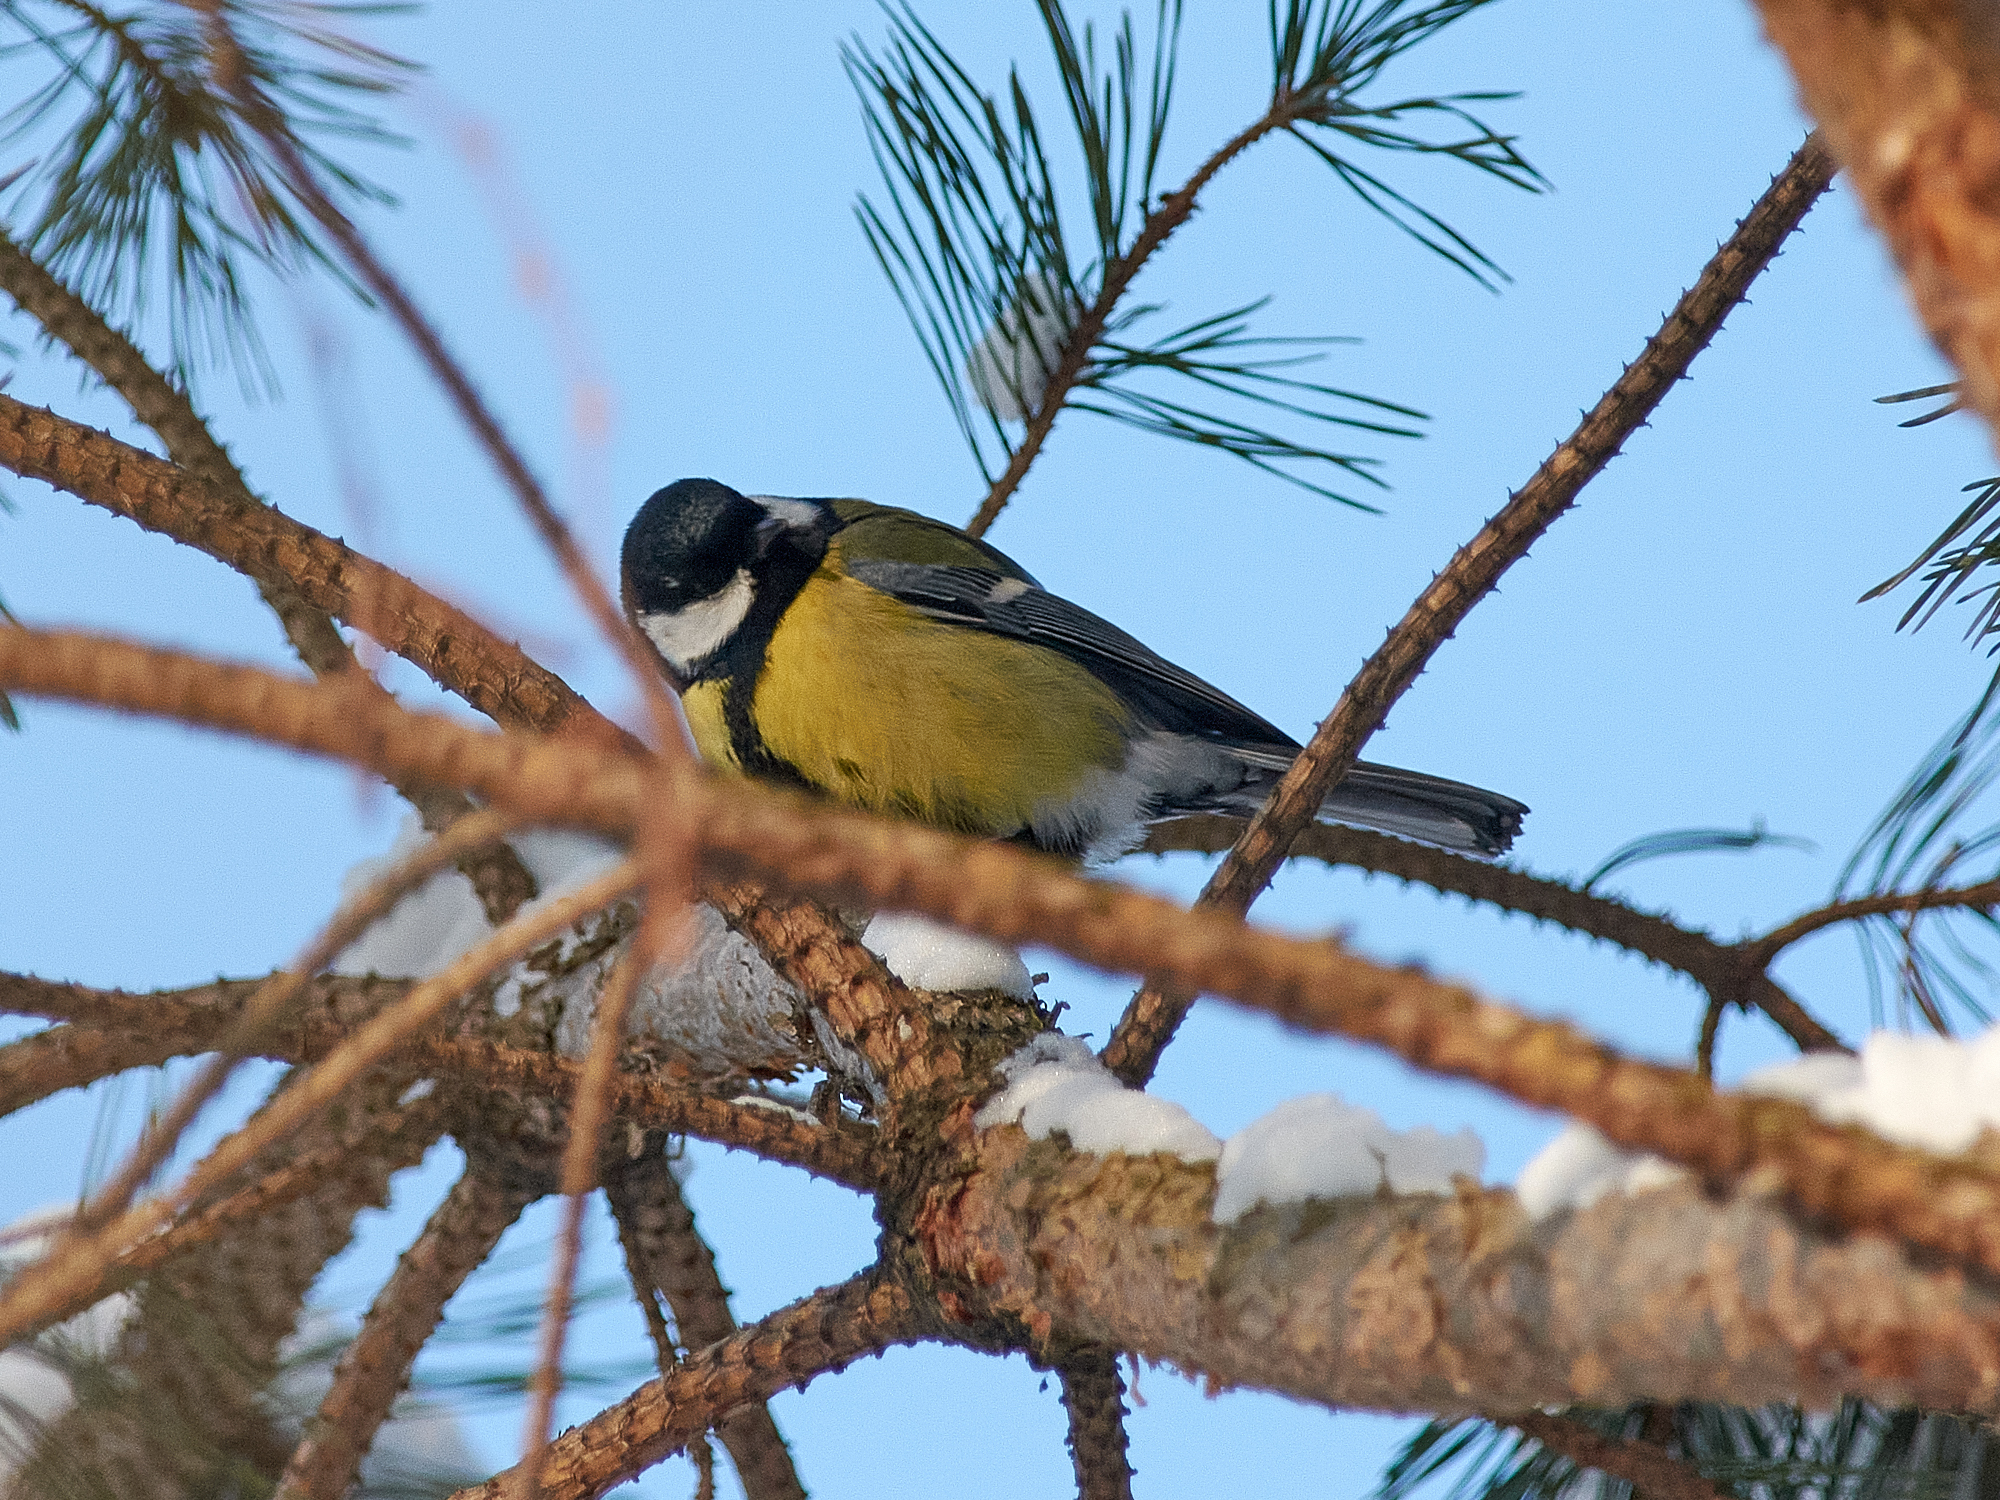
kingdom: Animalia
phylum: Chordata
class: Aves
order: Passeriformes
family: Paridae
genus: Parus
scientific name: Parus major
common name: Great tit
